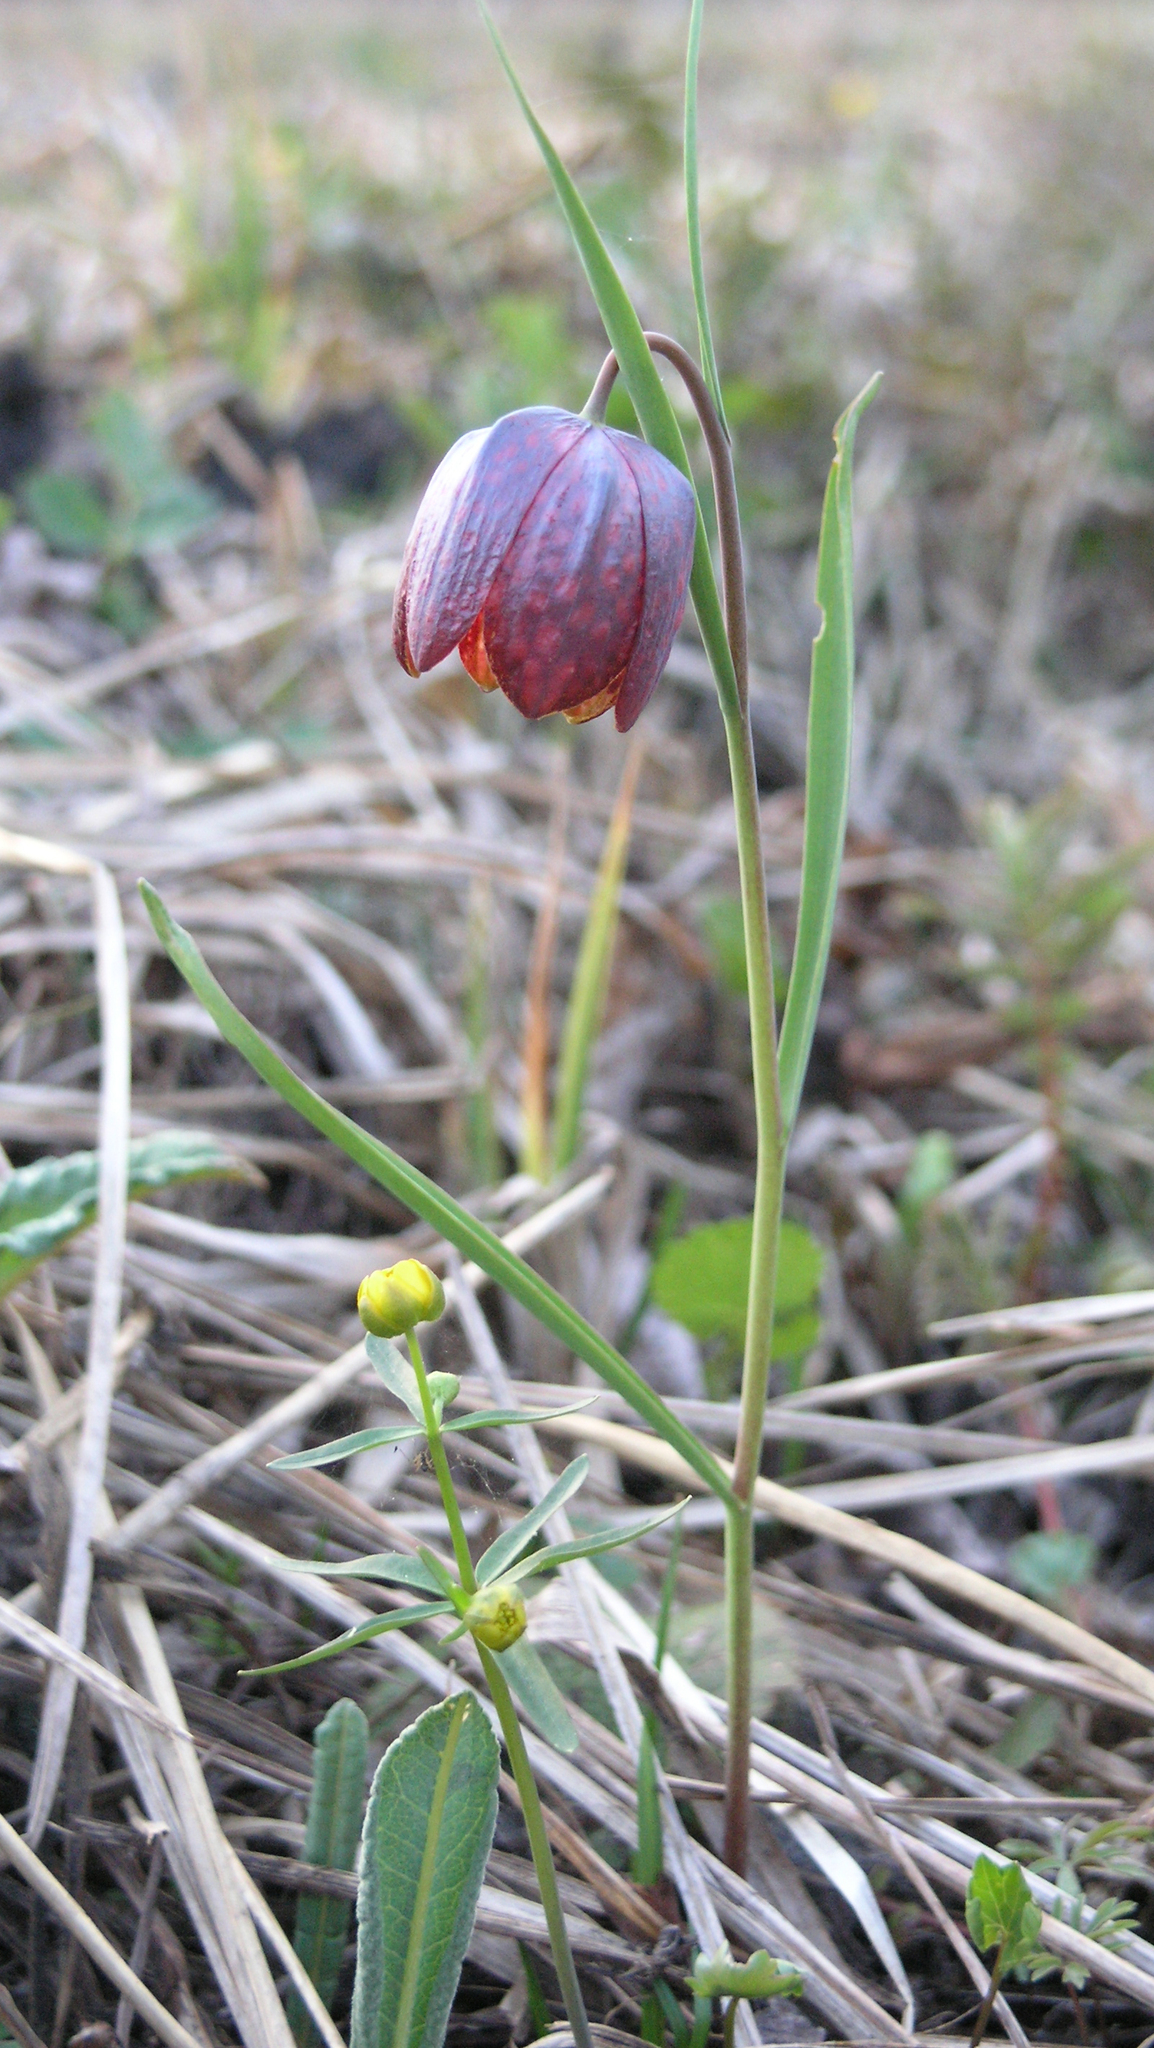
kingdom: Plantae
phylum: Tracheophyta
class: Liliopsida
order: Liliales
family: Liliaceae
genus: Fritillaria
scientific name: Fritillaria meleagris
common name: Fritillary
